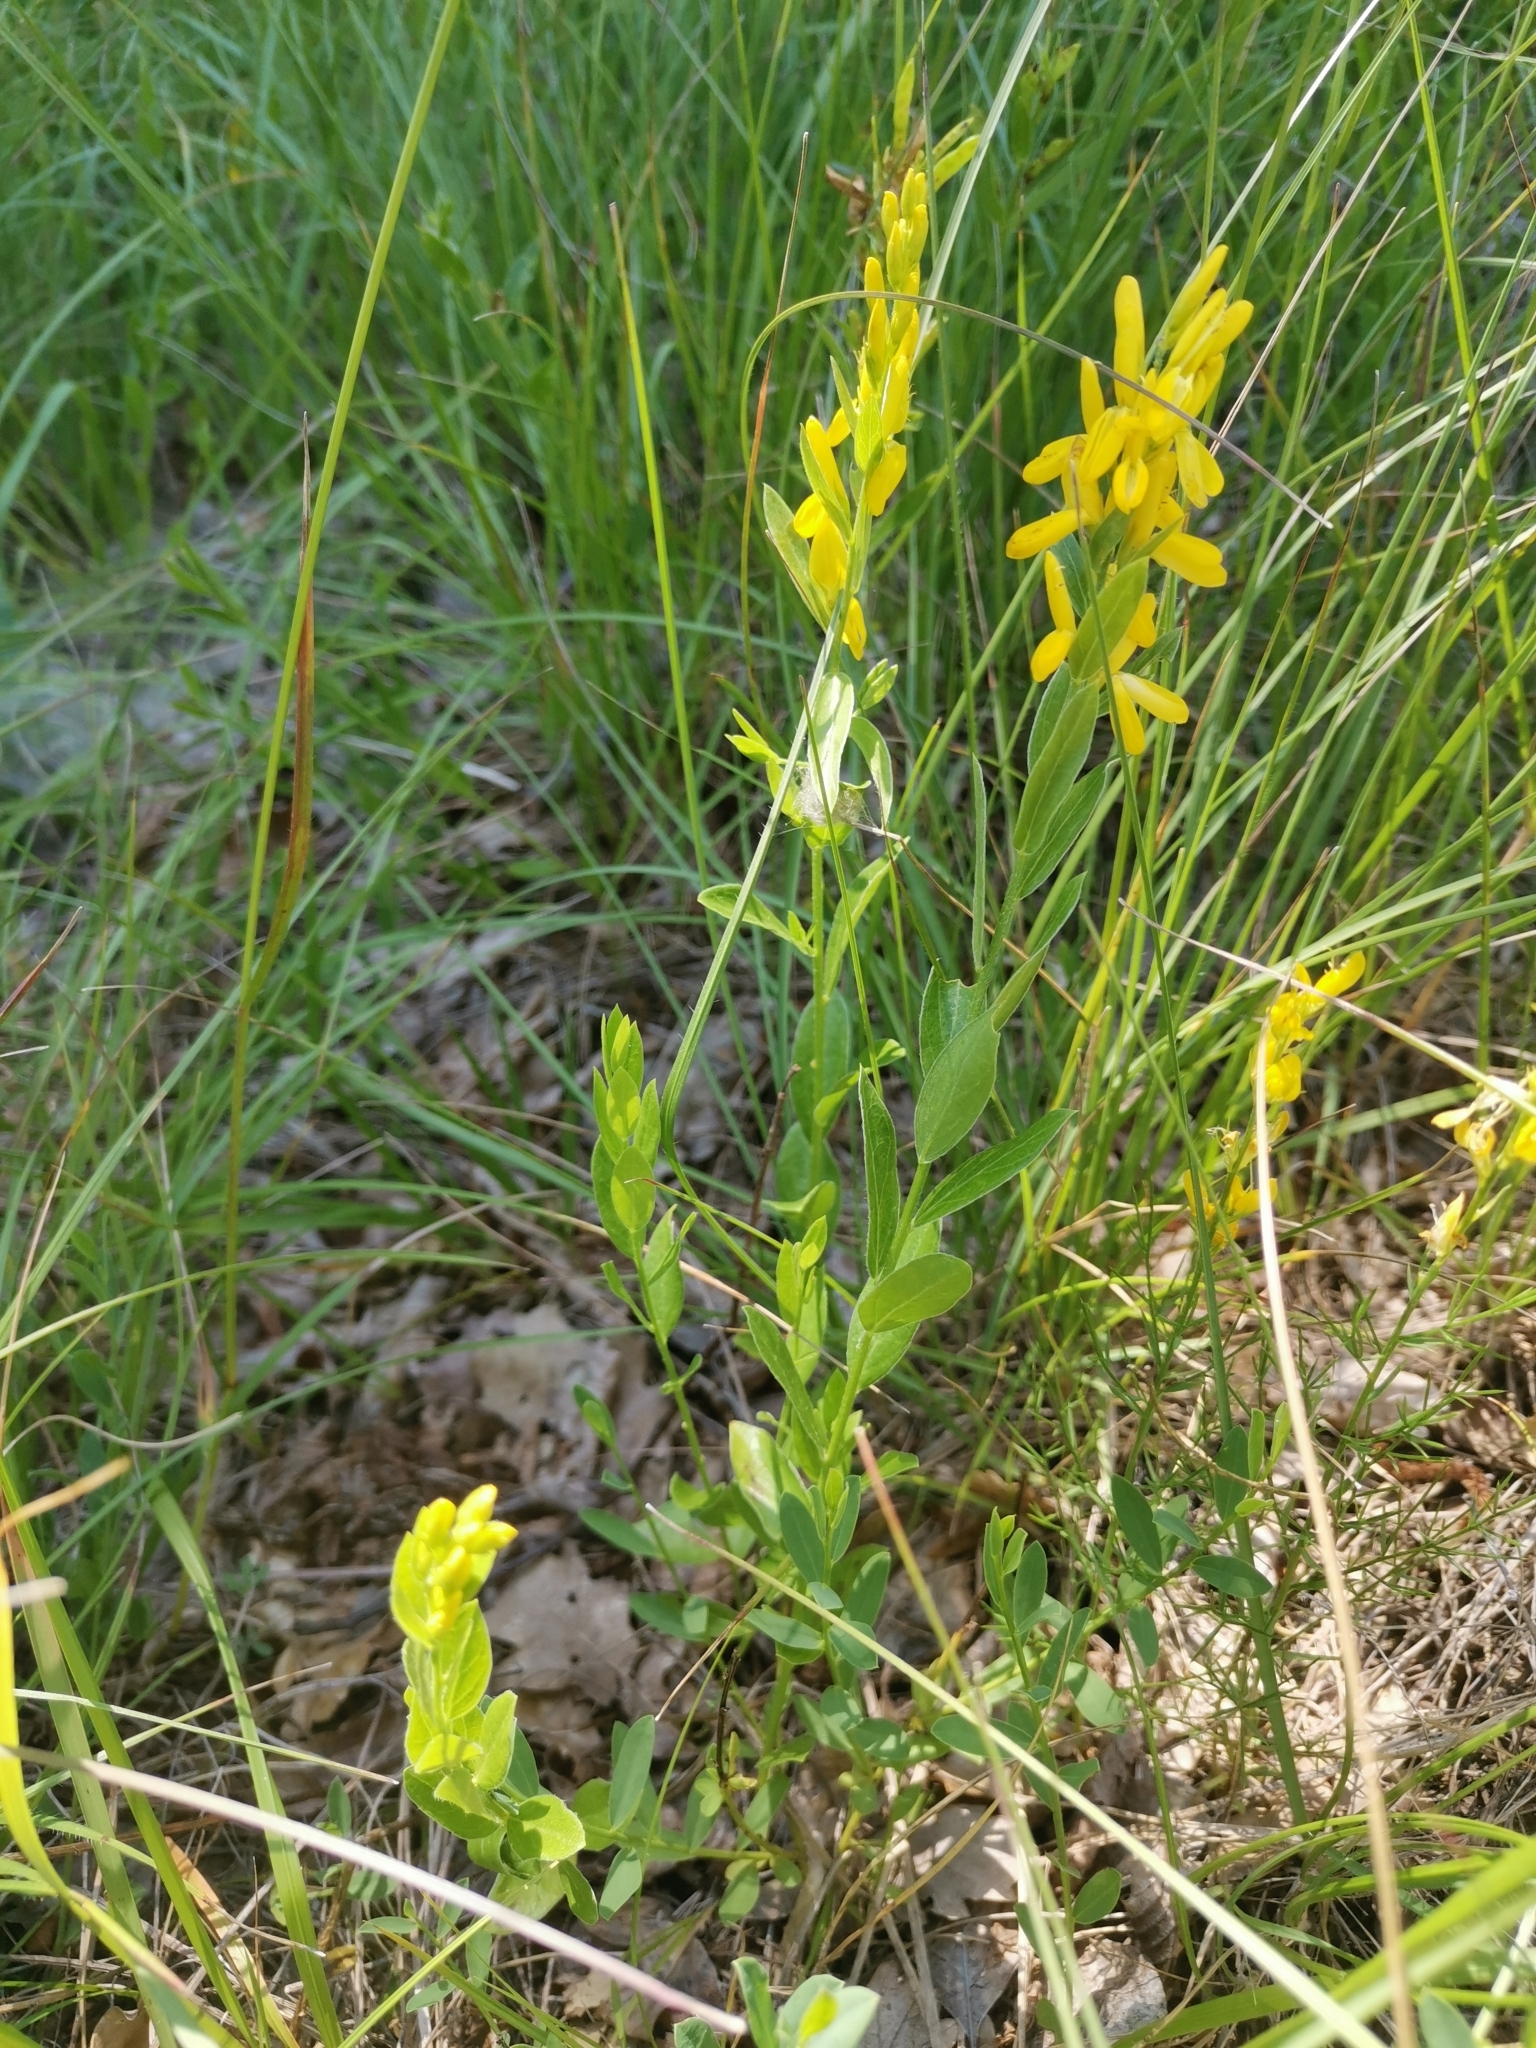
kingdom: Plantae
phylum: Tracheophyta
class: Magnoliopsida
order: Fabales
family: Fabaceae
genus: Genista
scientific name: Genista tinctoria
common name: Dyer's greenweed
